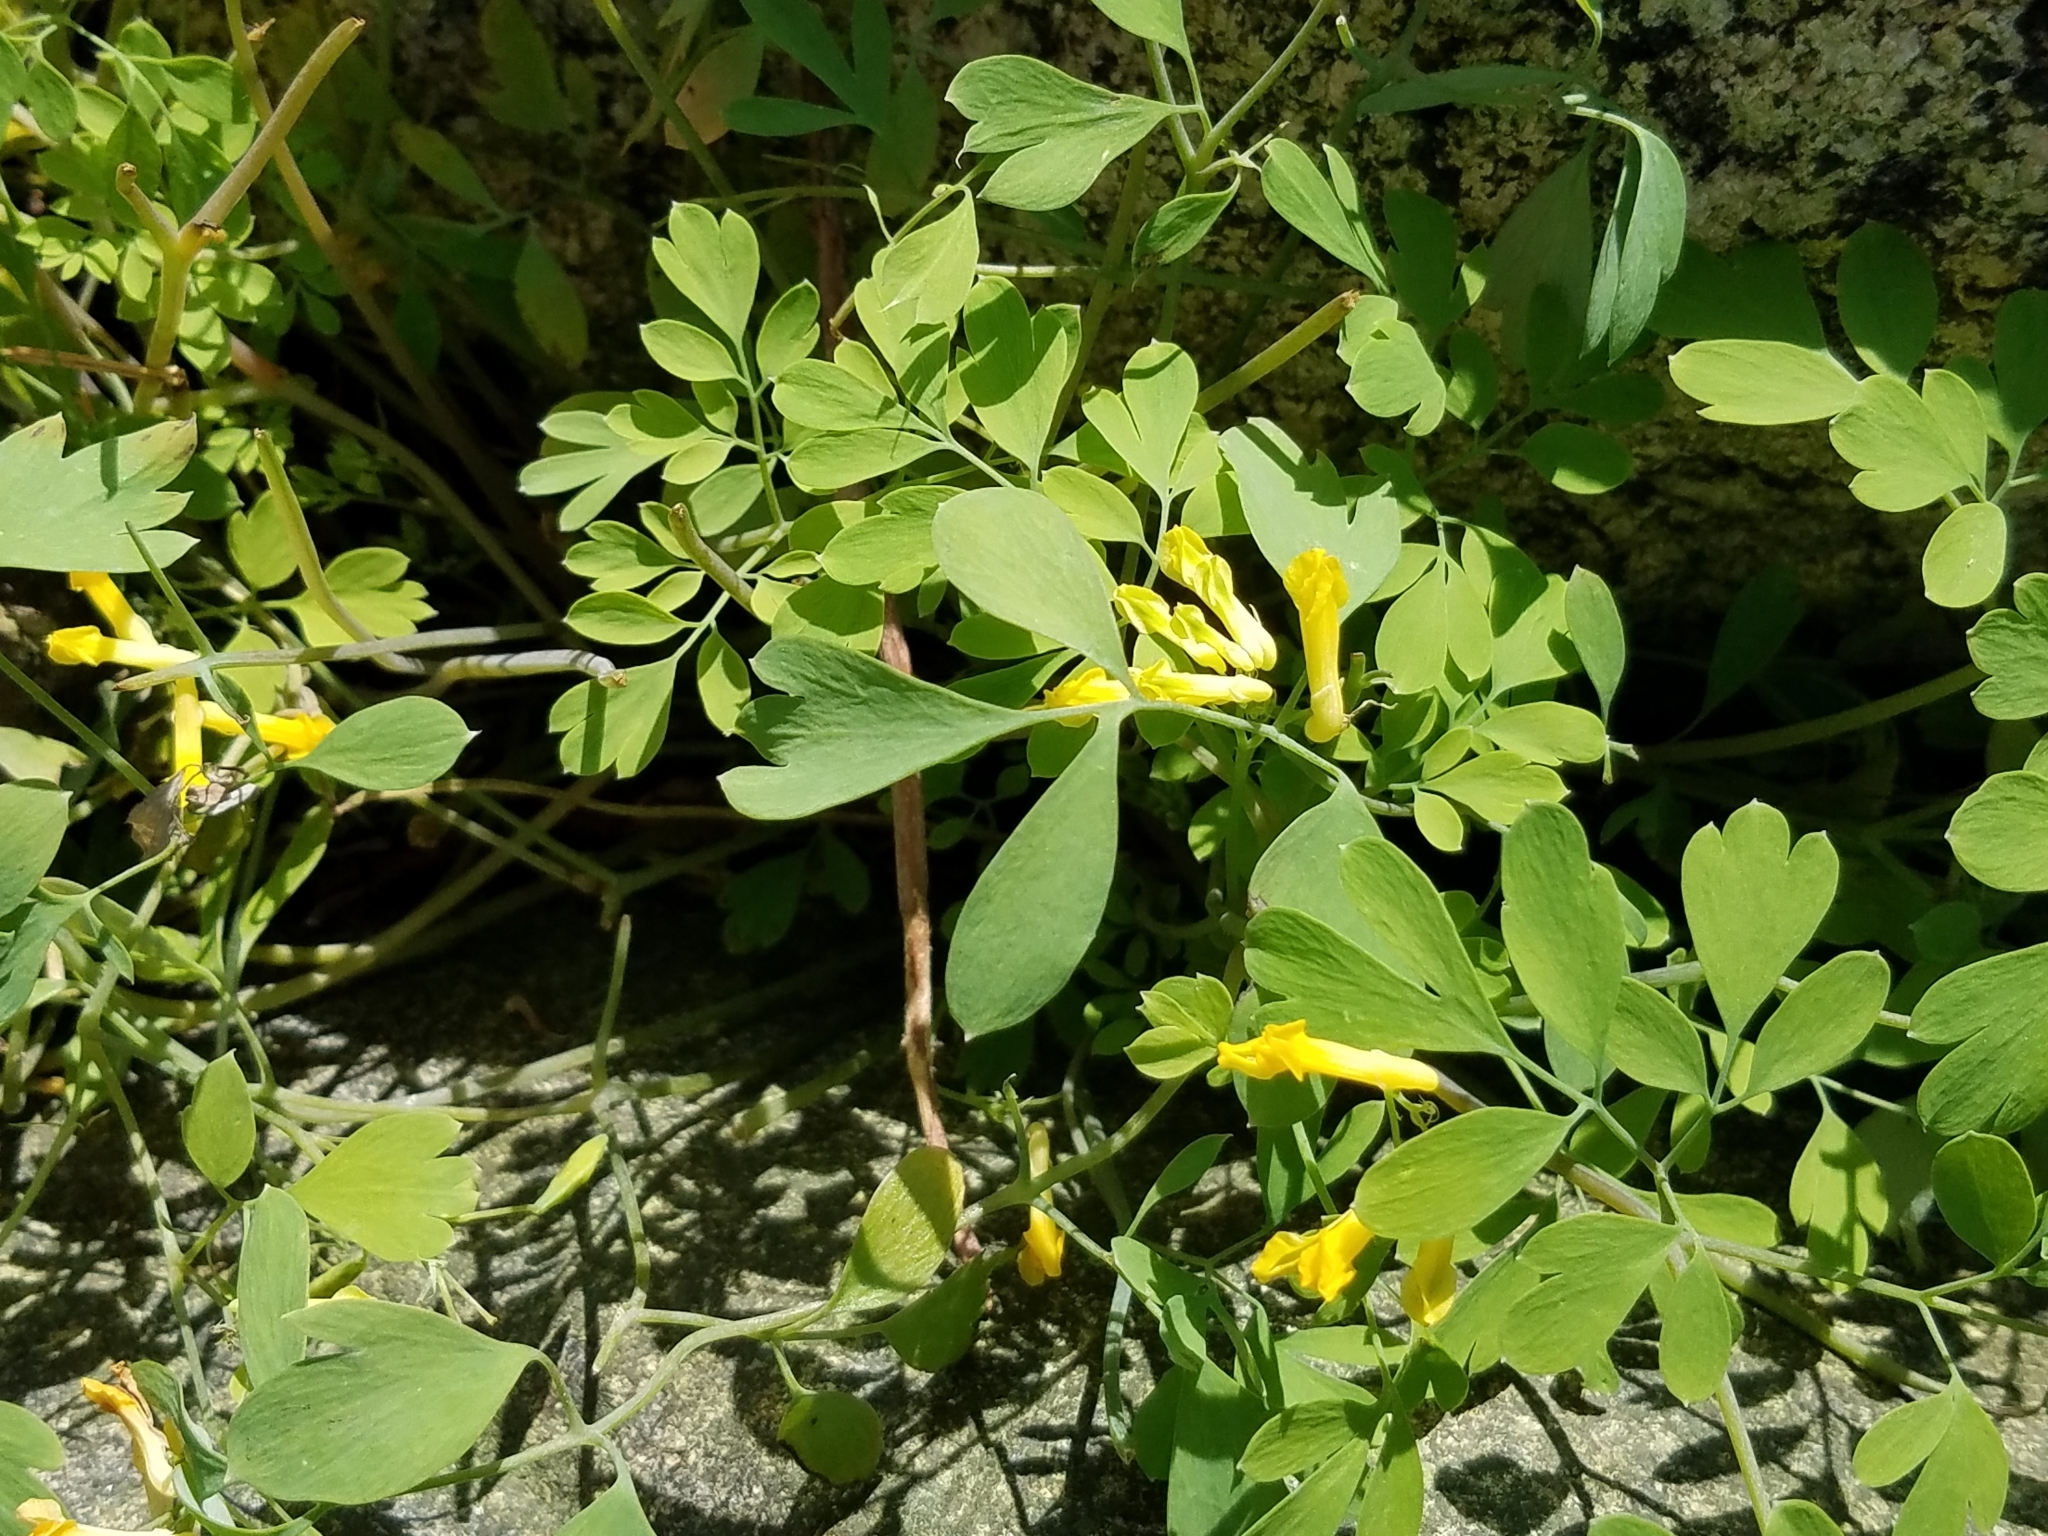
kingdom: Plantae
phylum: Tracheophyta
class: Magnoliopsida
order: Ranunculales
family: Papaveraceae
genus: Pseudofumaria
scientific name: Pseudofumaria lutea
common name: Yellow corydalis
